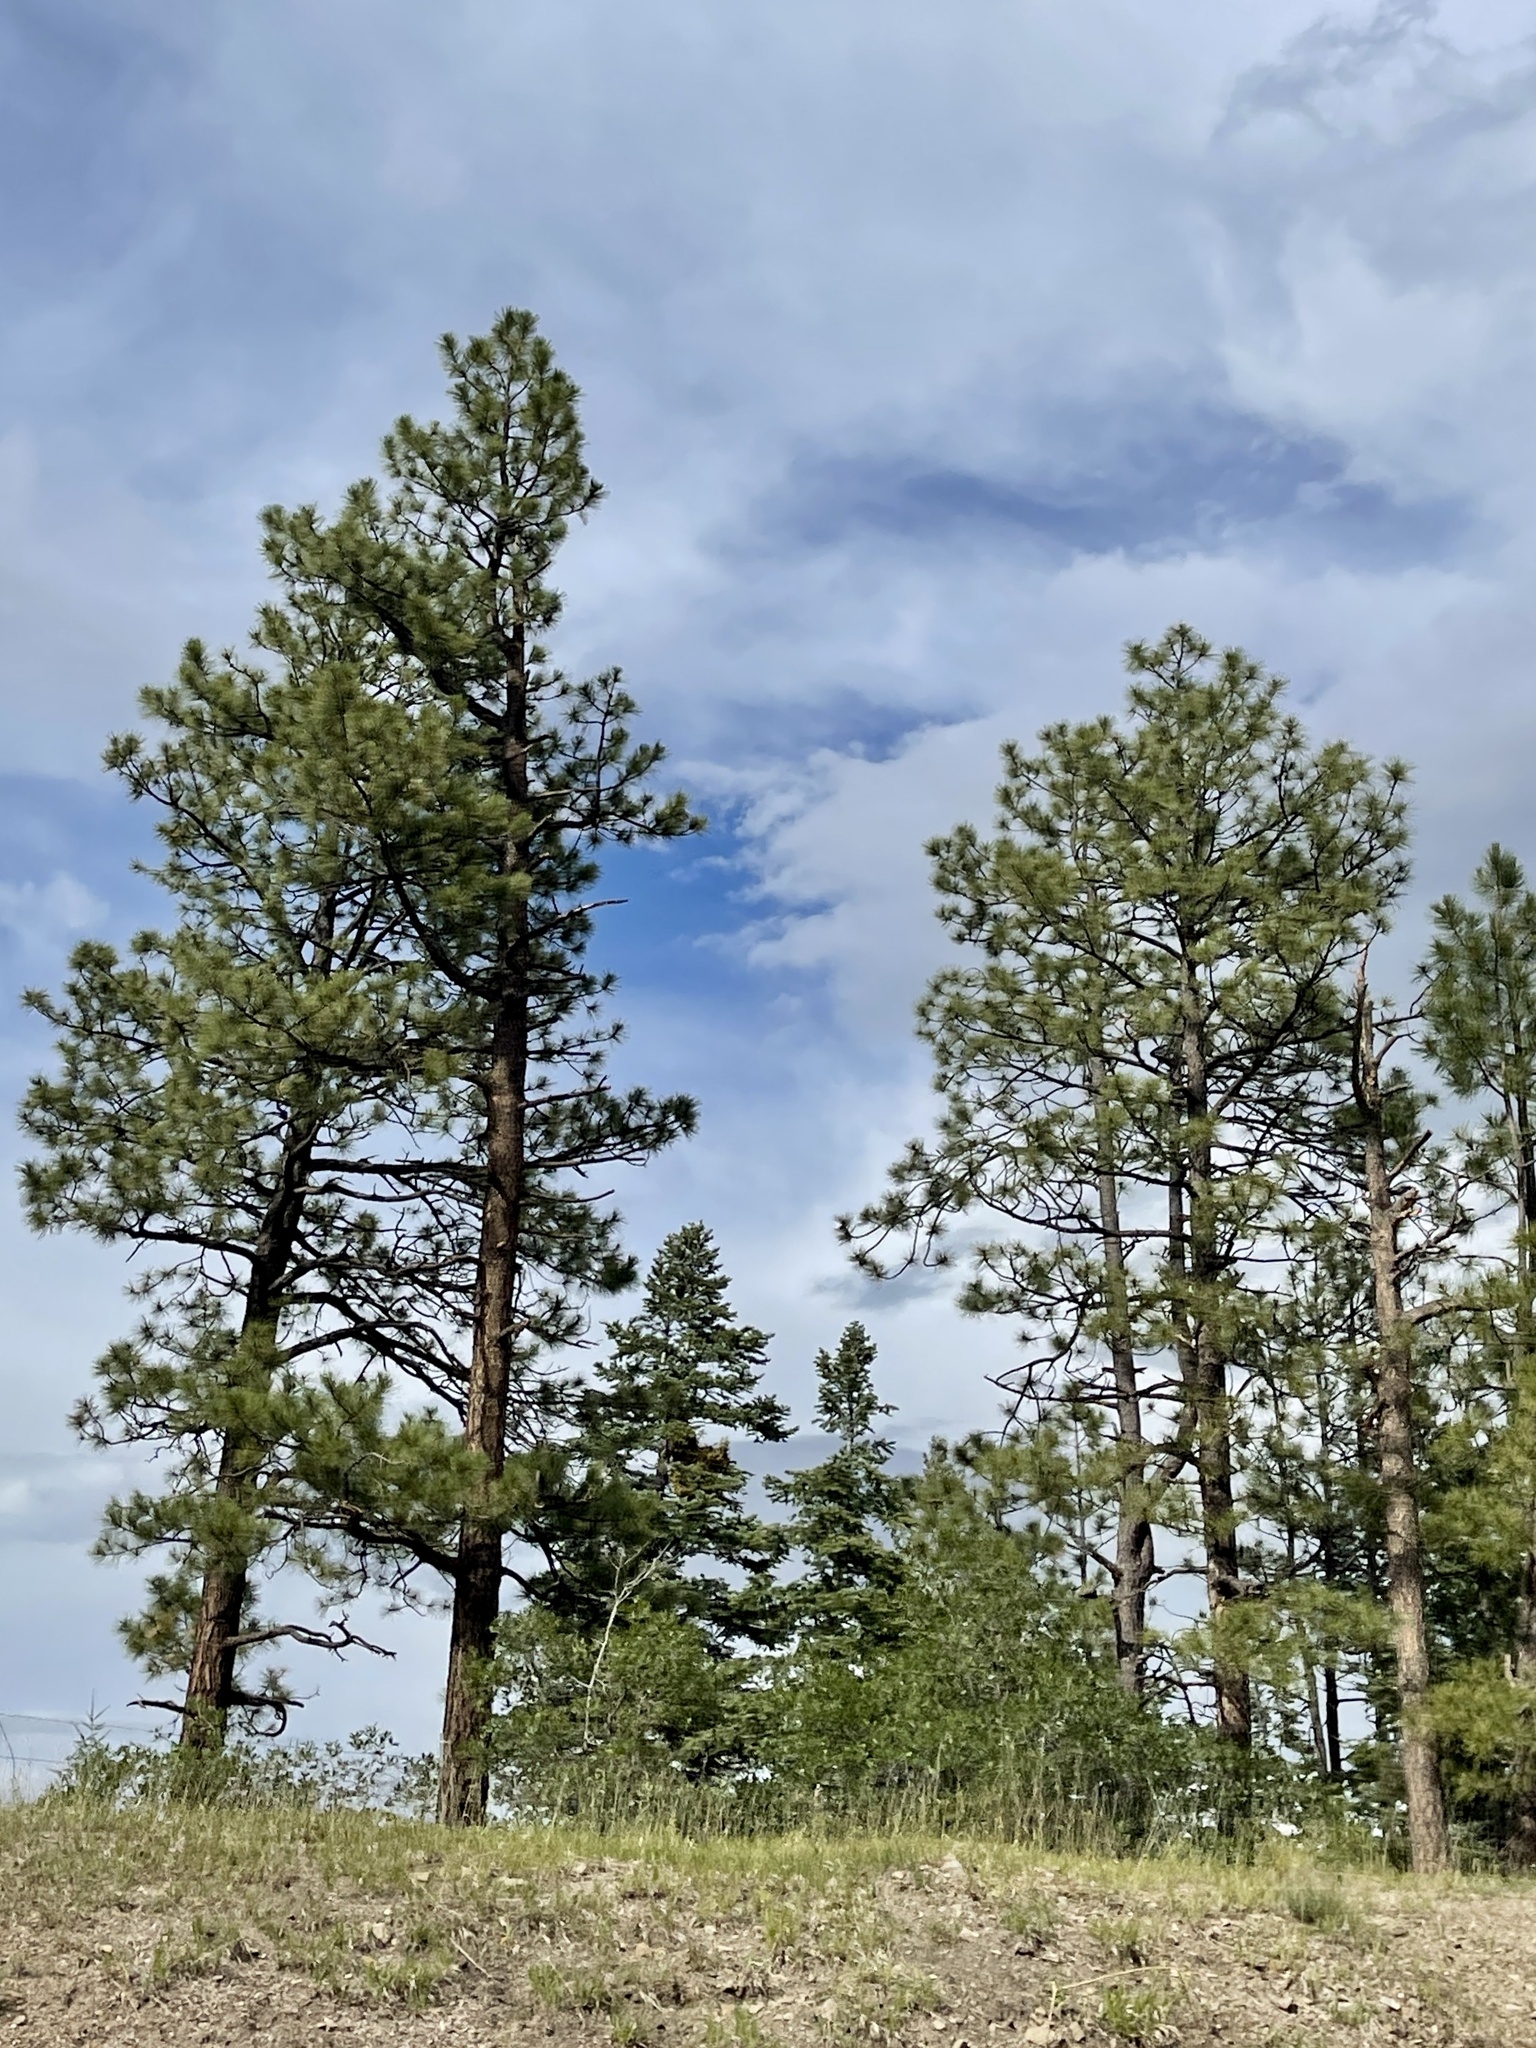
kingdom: Plantae
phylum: Tracheophyta
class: Pinopsida
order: Pinales
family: Pinaceae
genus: Pinus
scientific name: Pinus ponderosa
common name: Western yellow-pine
